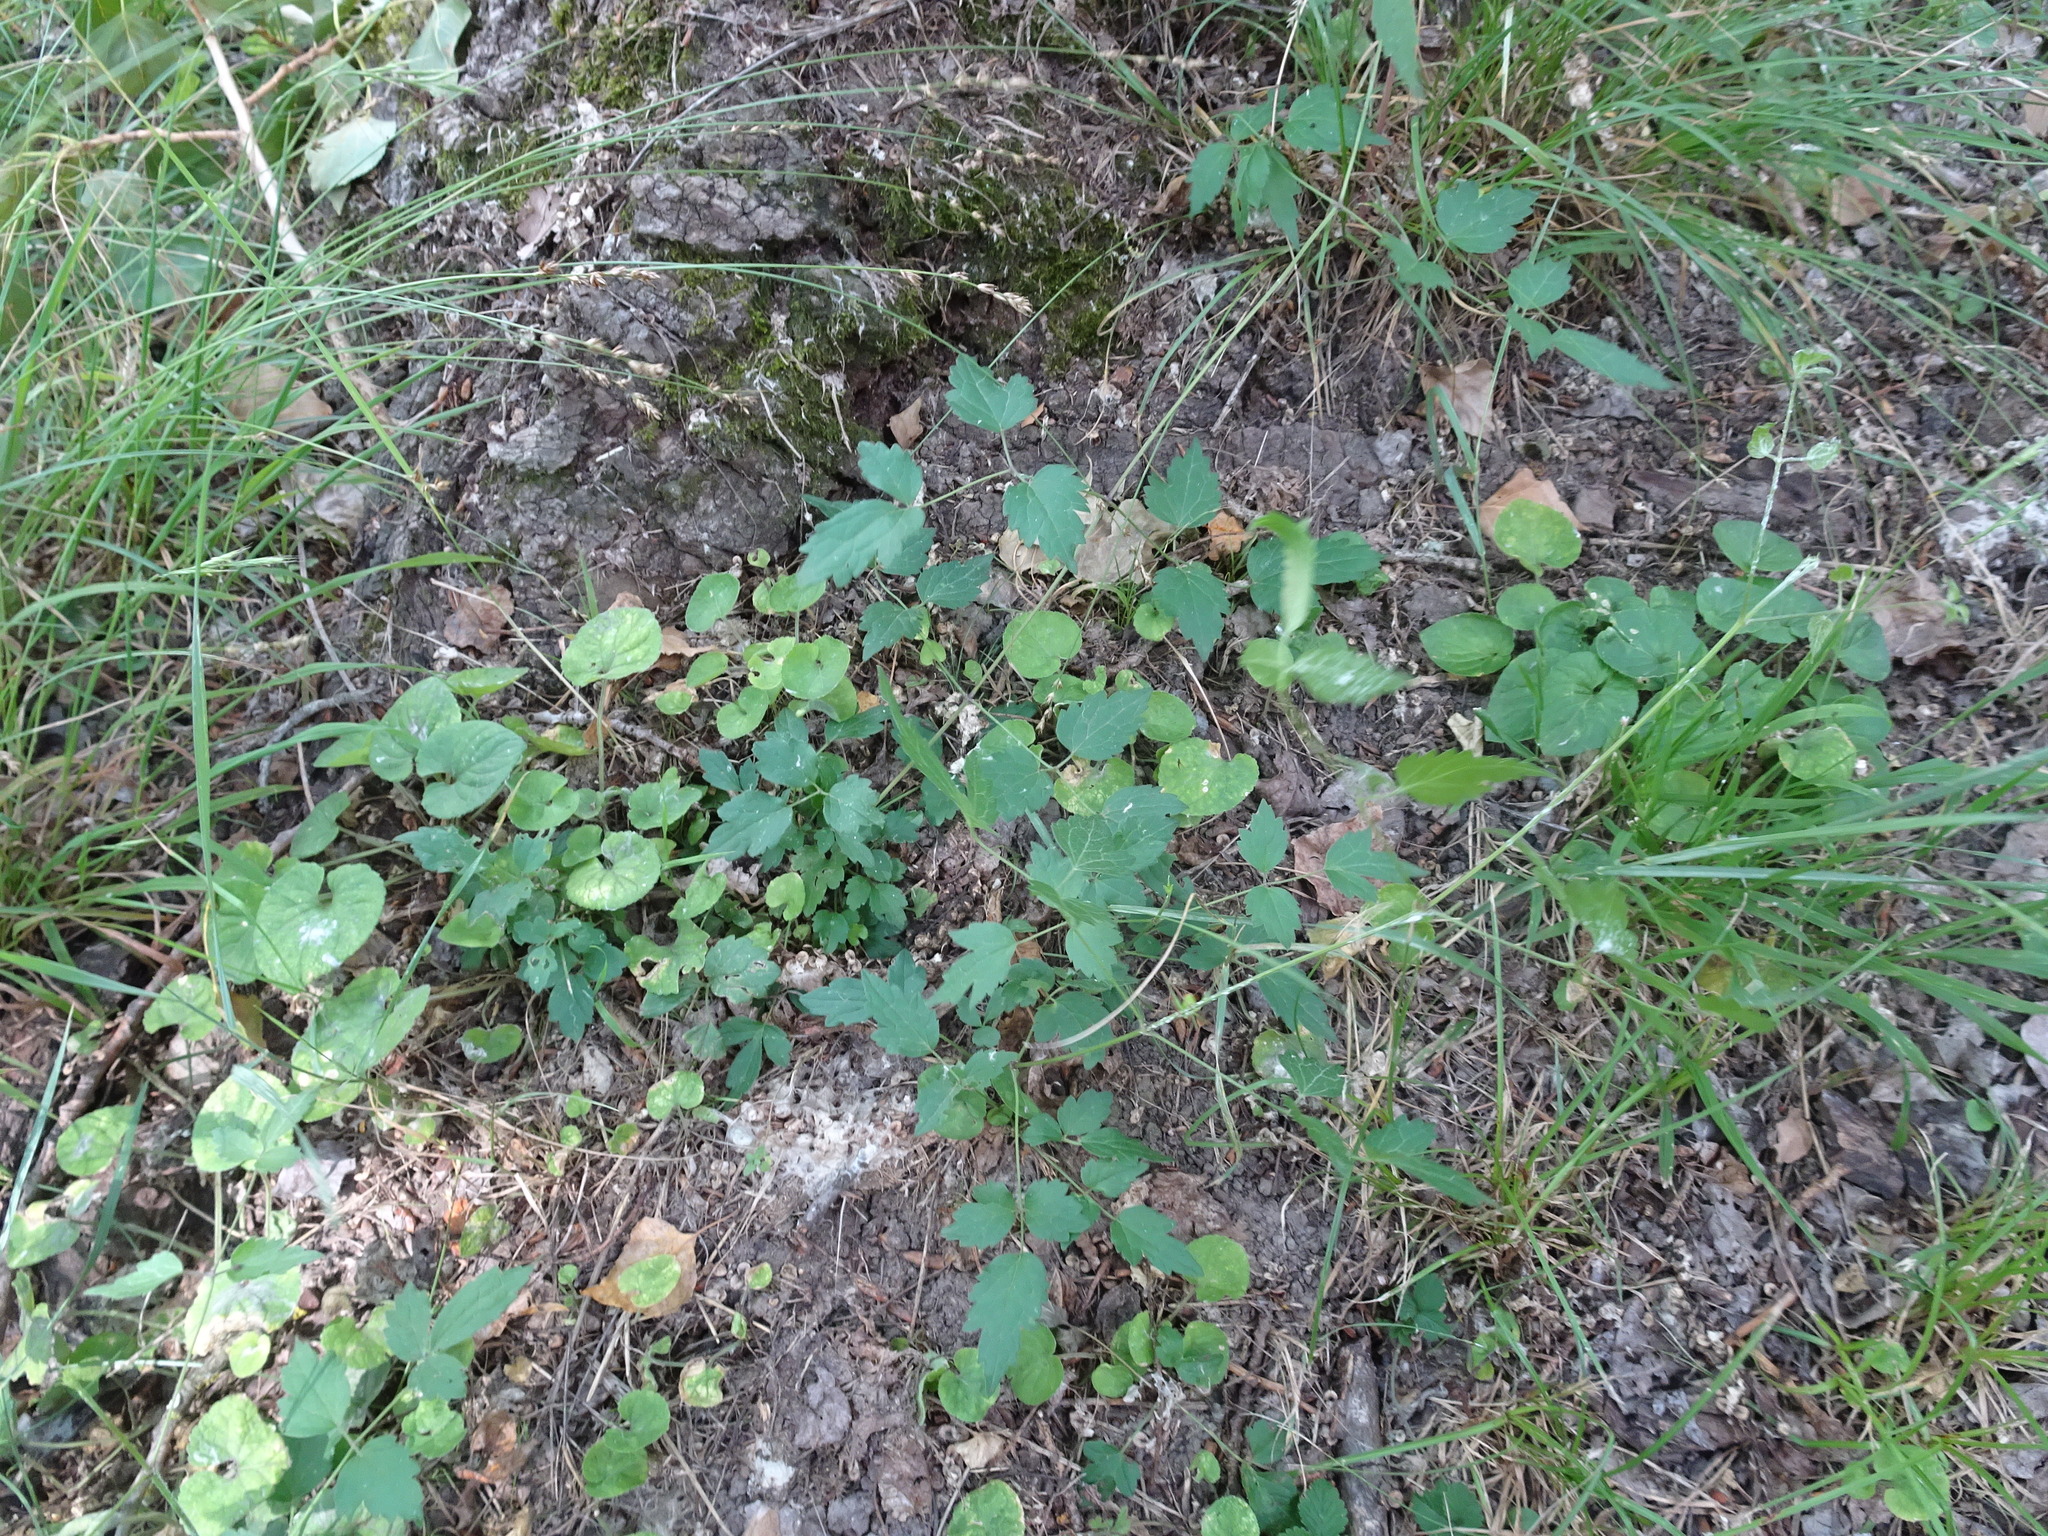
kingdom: Plantae
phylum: Tracheophyta
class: Magnoliopsida
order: Ranunculales
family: Ranunculaceae
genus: Clematis
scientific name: Clematis vitalba
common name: Evergreen clematis
